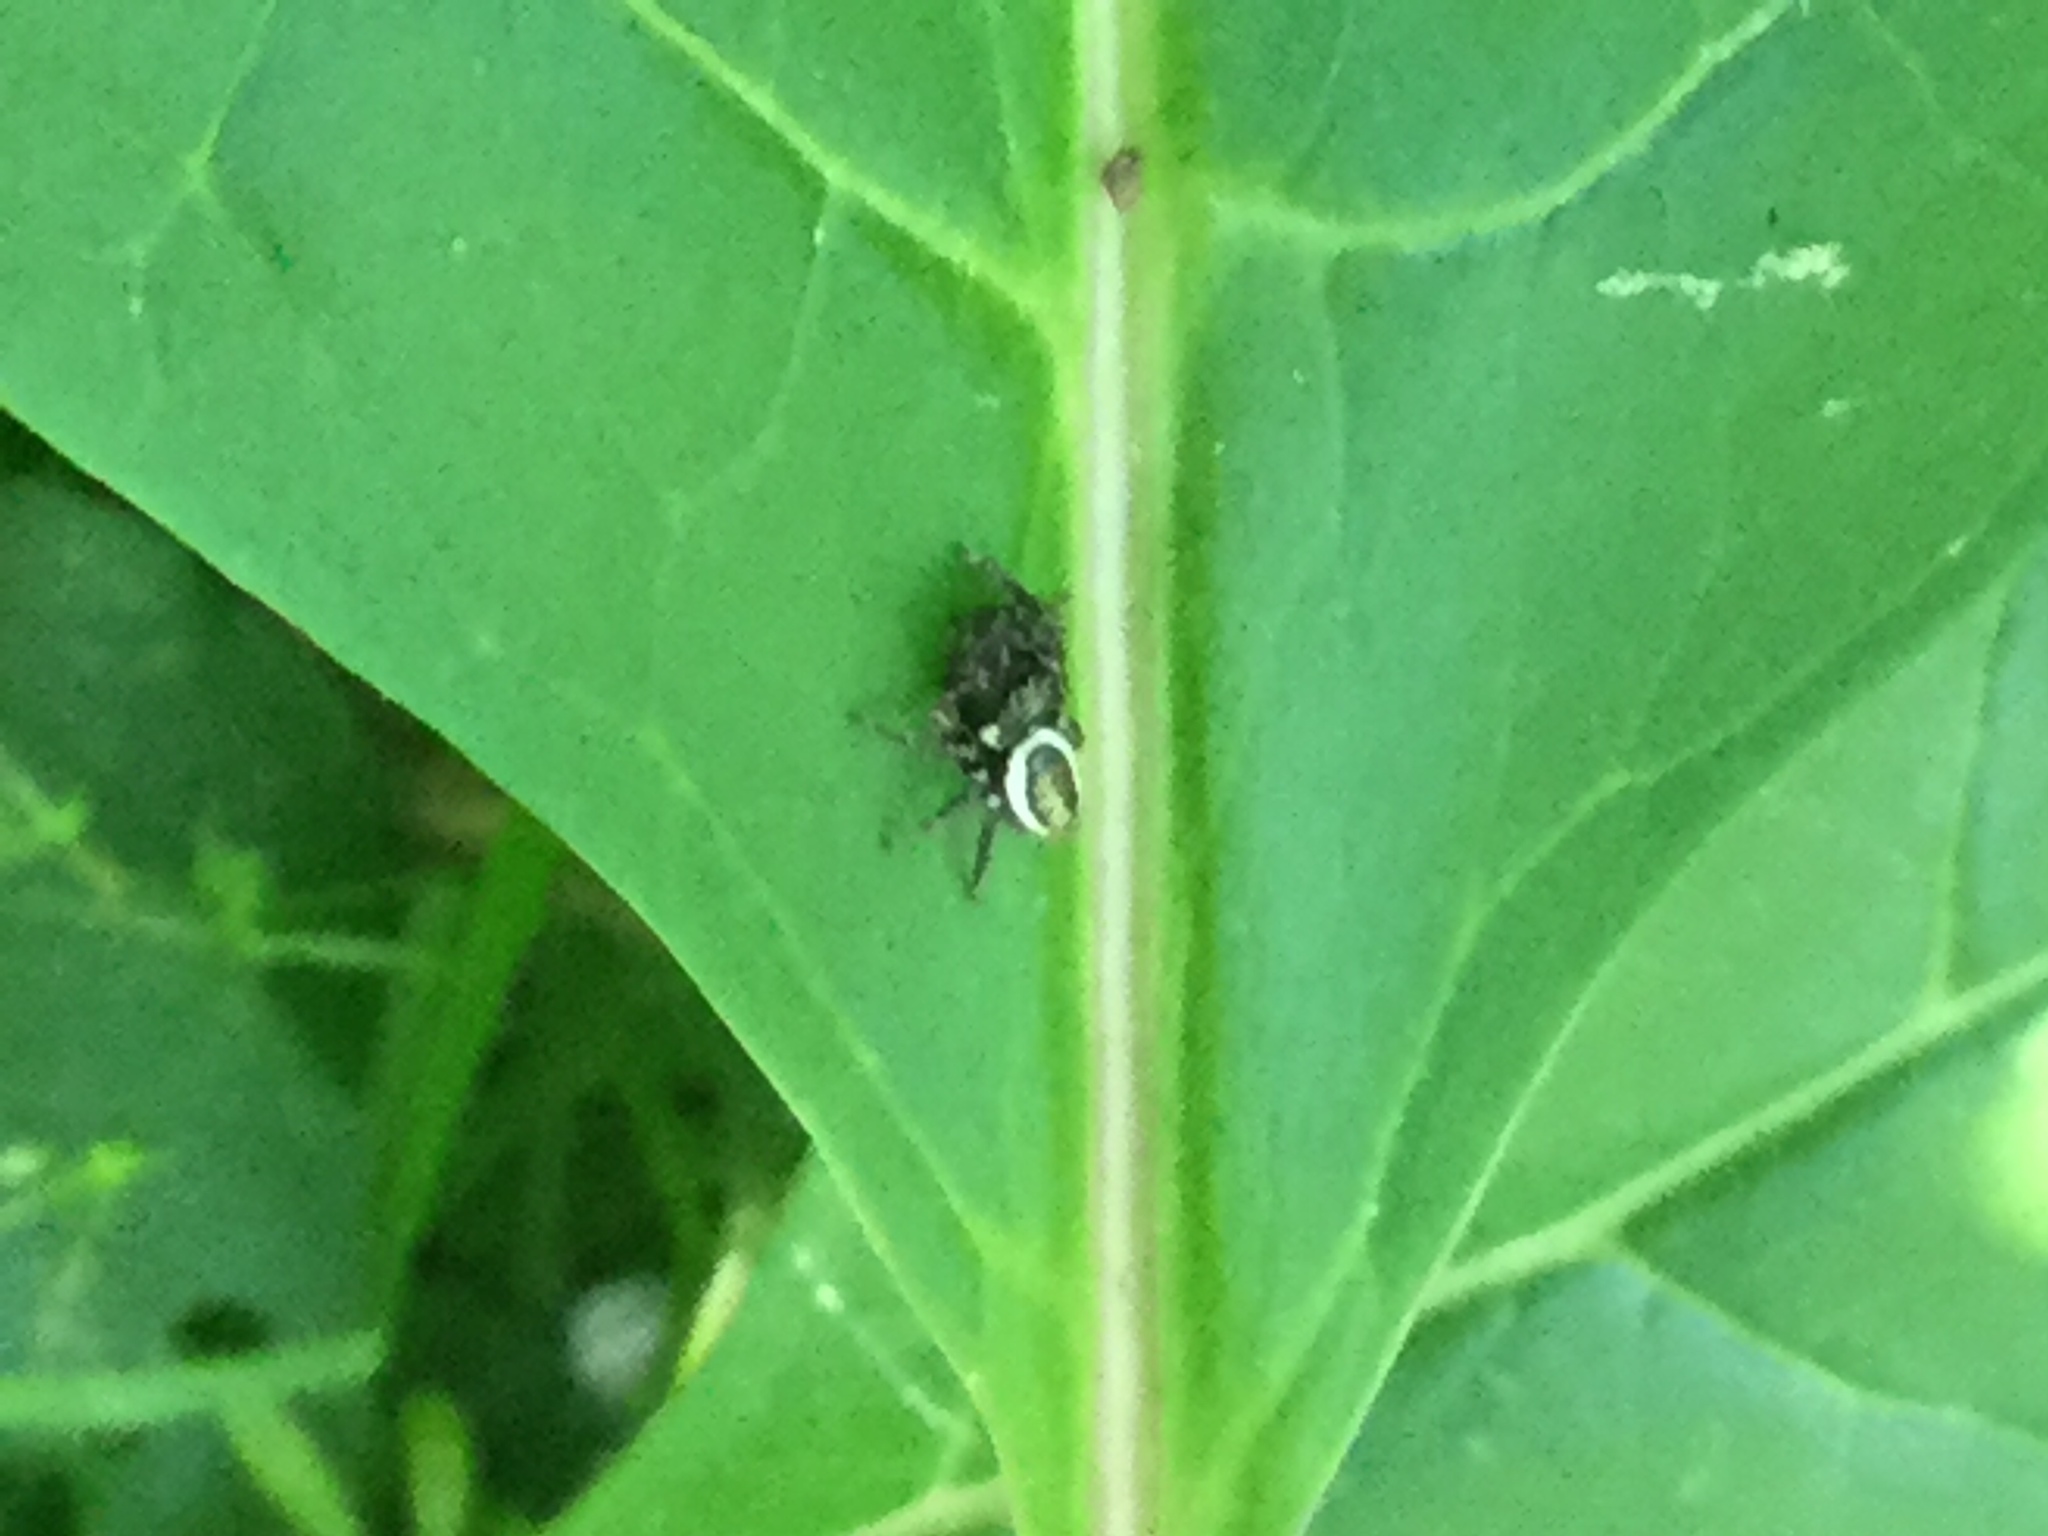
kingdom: Animalia
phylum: Arthropoda
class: Arachnida
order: Araneae
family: Salticidae
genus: Eris
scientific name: Eris militaris
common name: Bronze jumper
